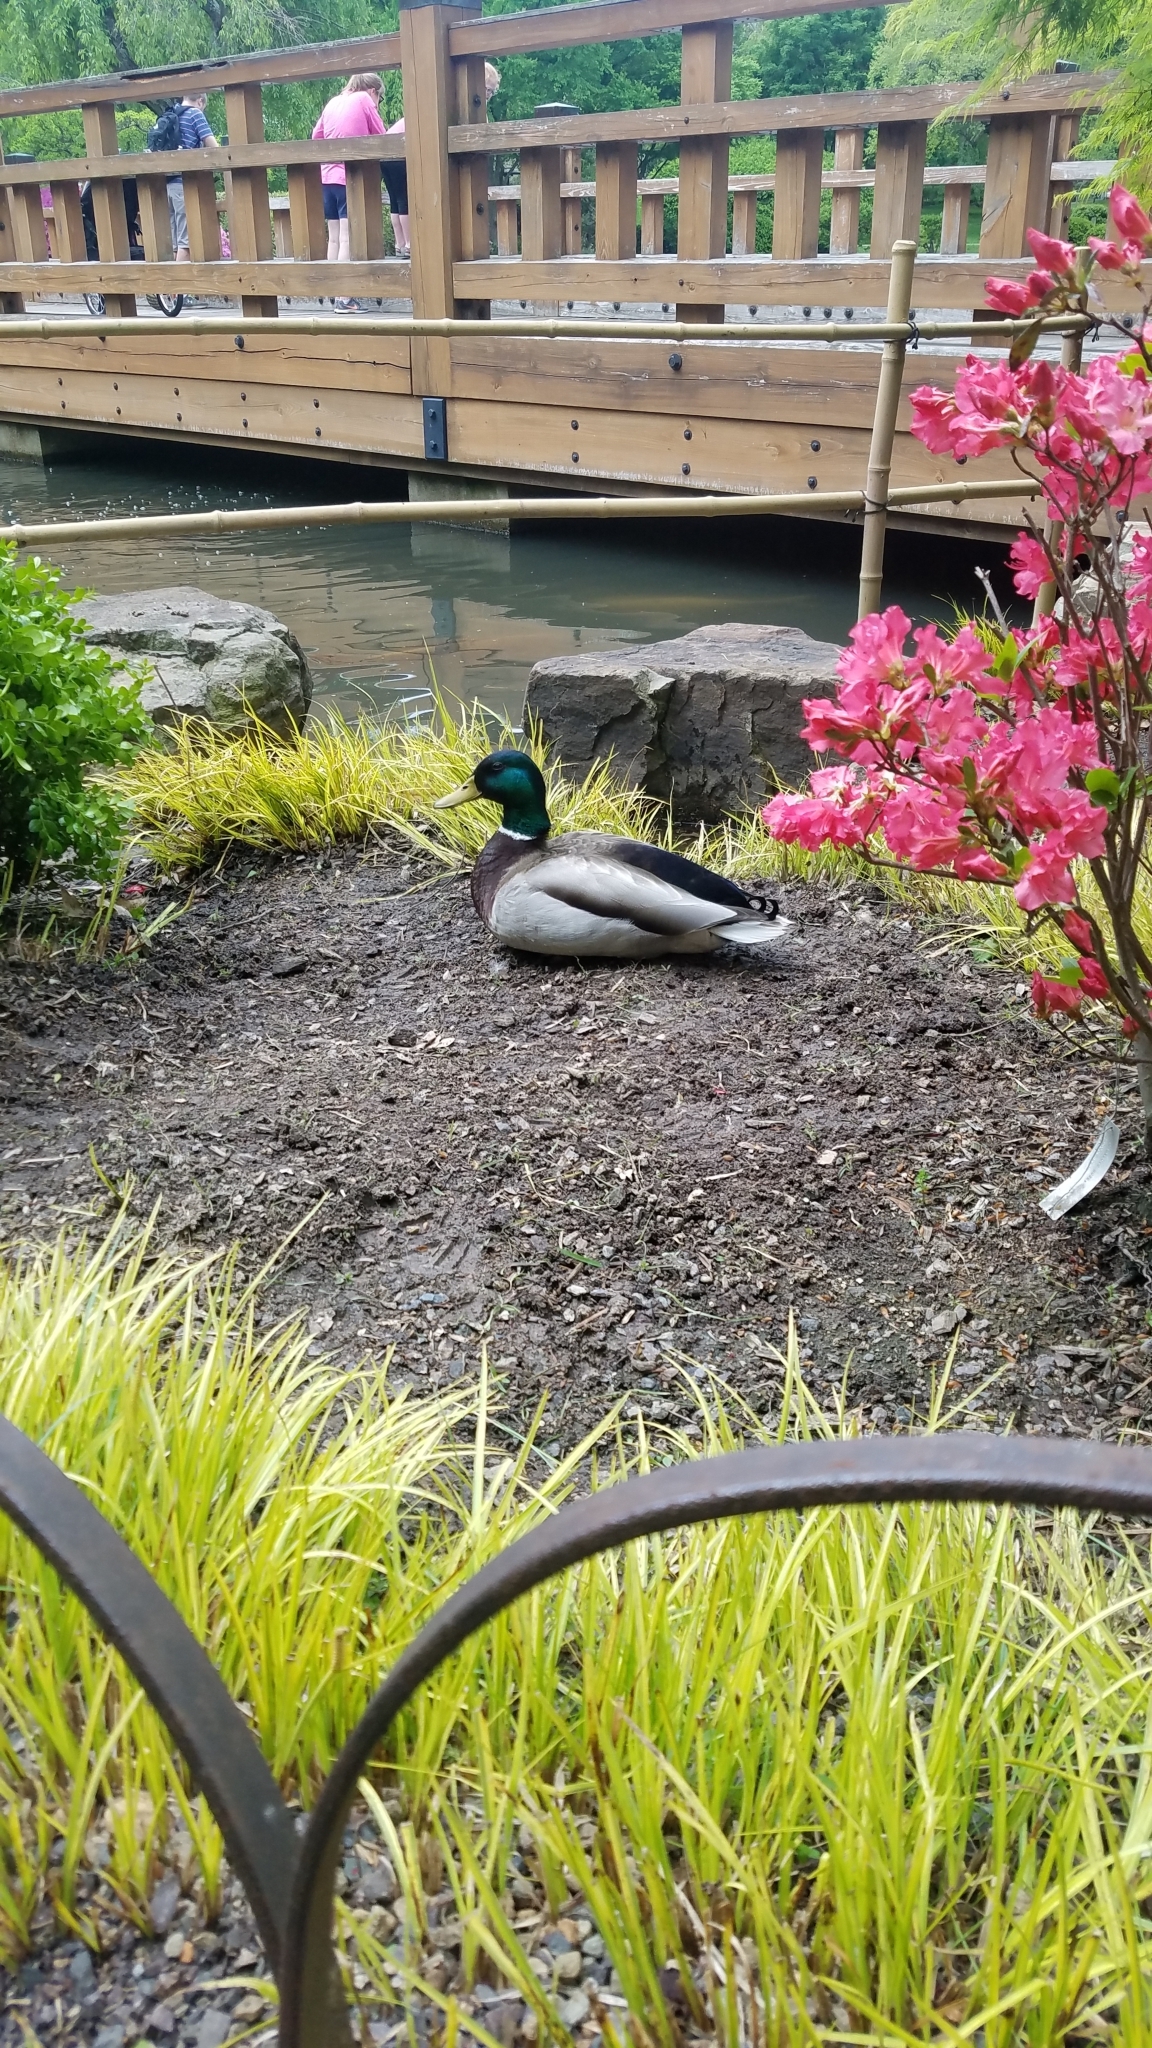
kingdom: Animalia
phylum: Chordata
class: Aves
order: Anseriformes
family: Anatidae
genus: Anas
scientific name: Anas platyrhynchos
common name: Mallard
